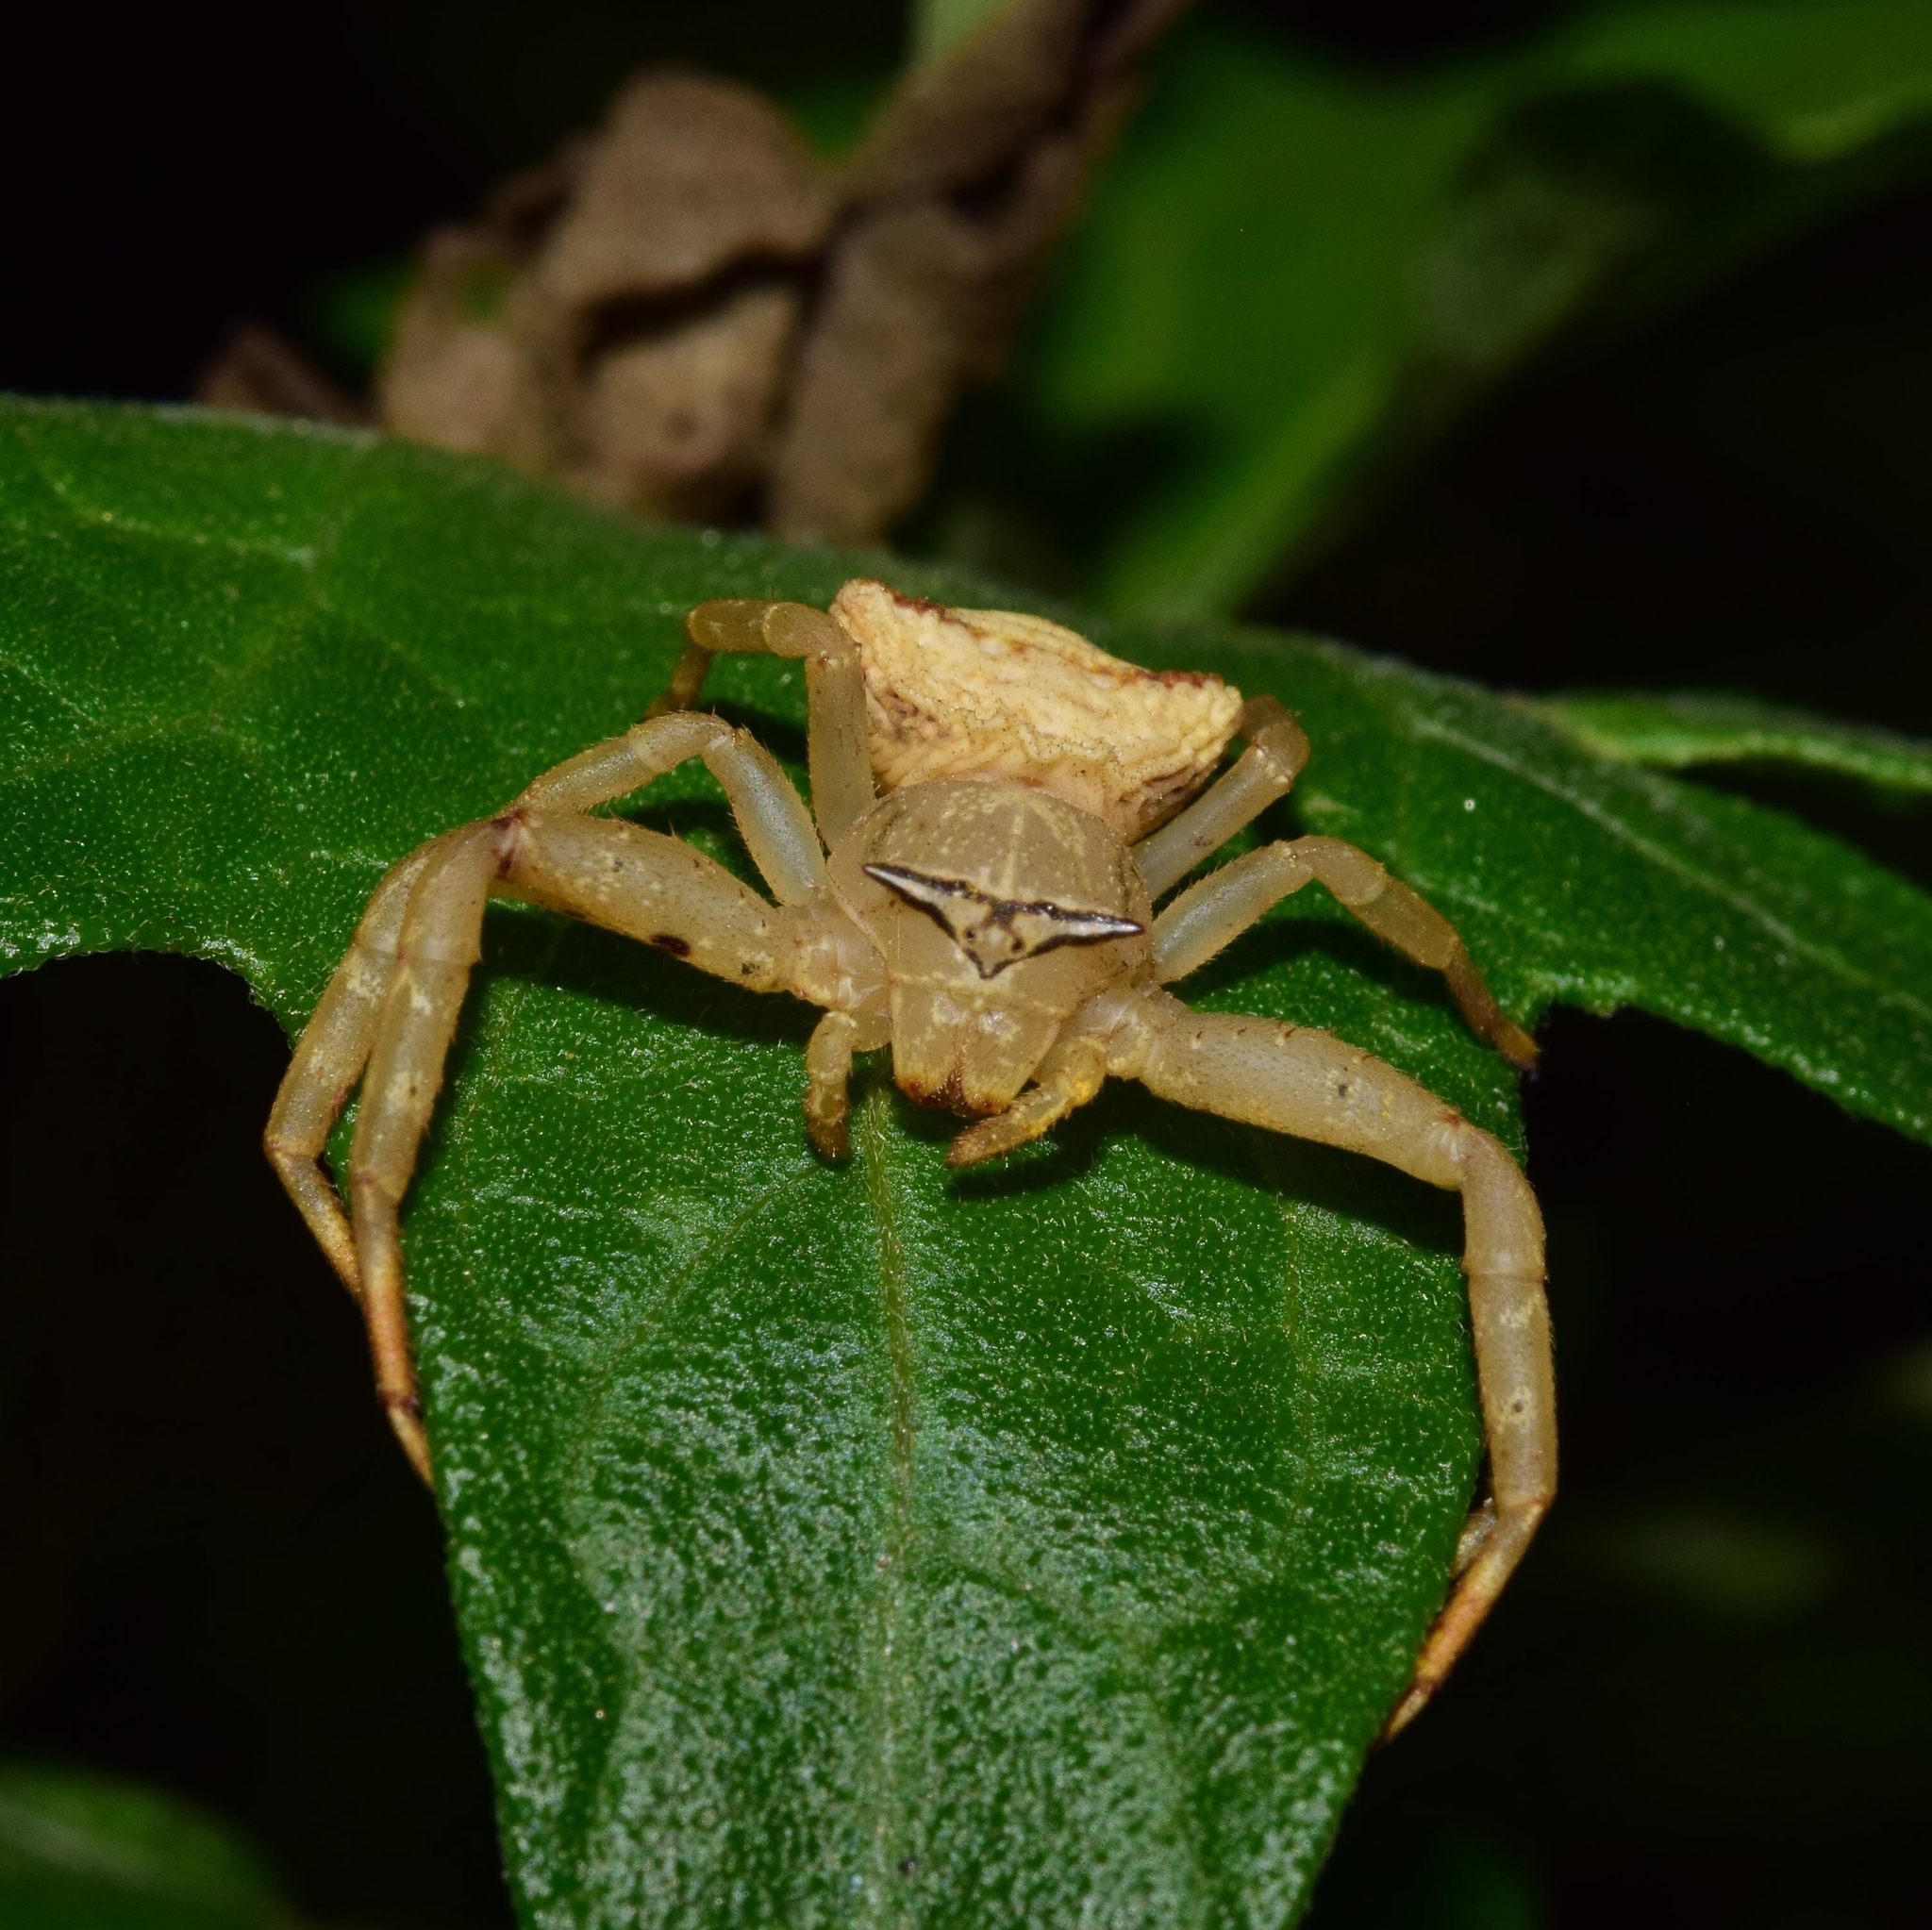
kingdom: Animalia
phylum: Arthropoda
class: Arachnida
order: Araneae
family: Thomisidae
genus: Thomisus
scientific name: Thomisus blandus
